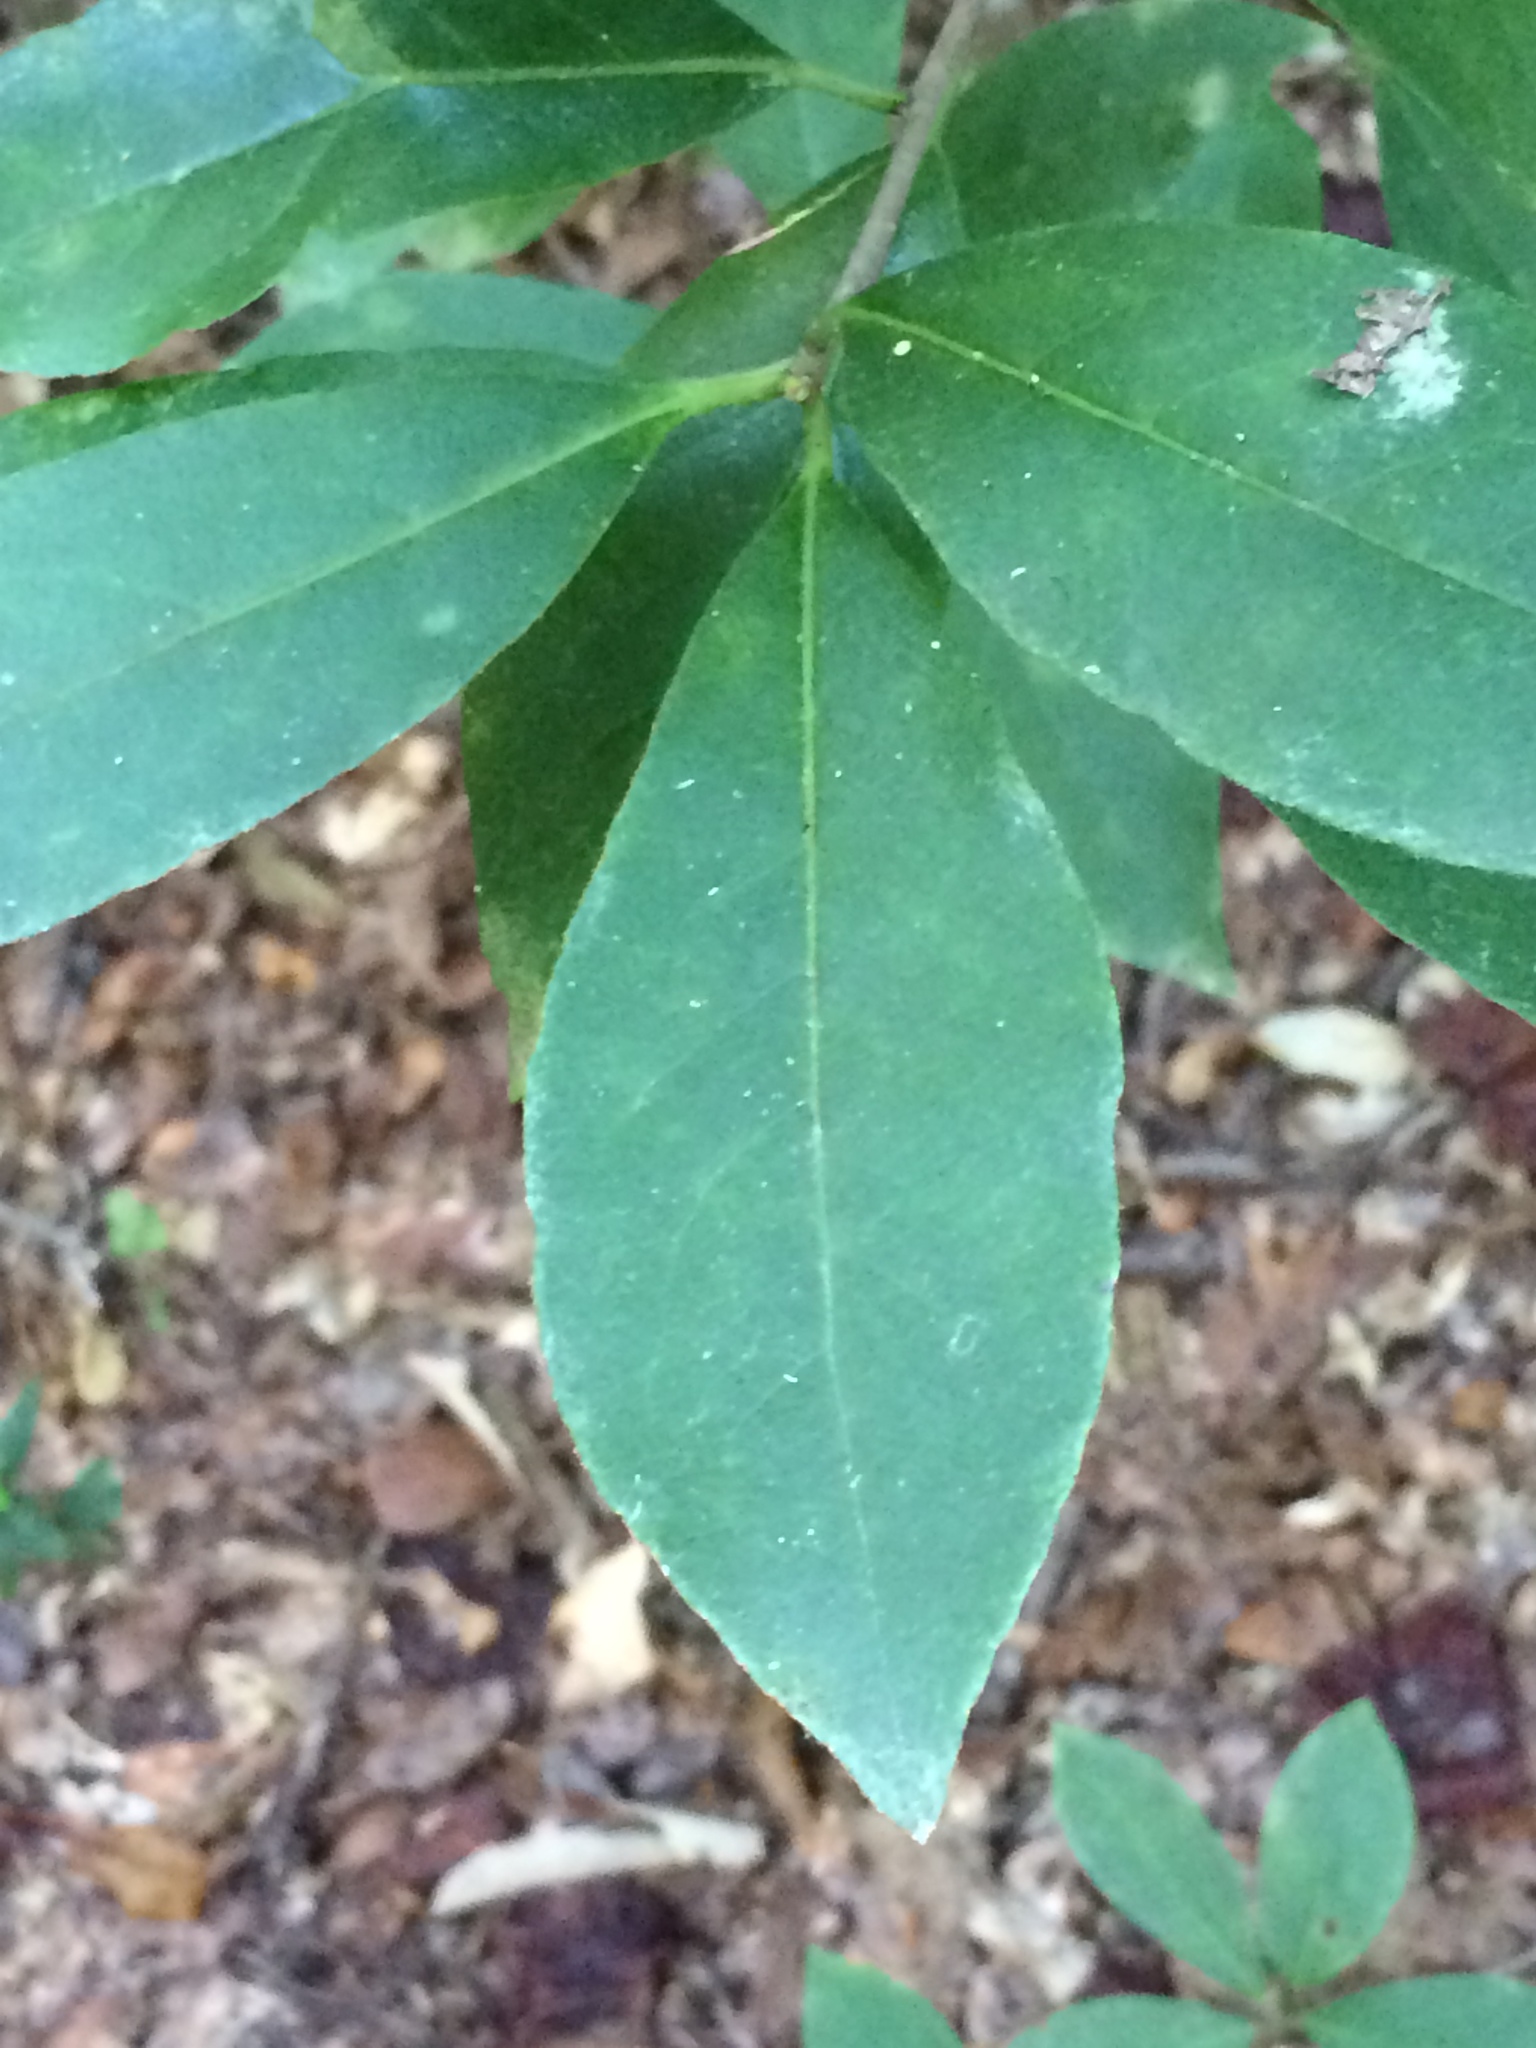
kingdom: Plantae
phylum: Tracheophyta
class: Magnoliopsida
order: Ericales
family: Symplocaceae
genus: Symplocos
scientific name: Symplocos tinctoria
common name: Horse-sugar
